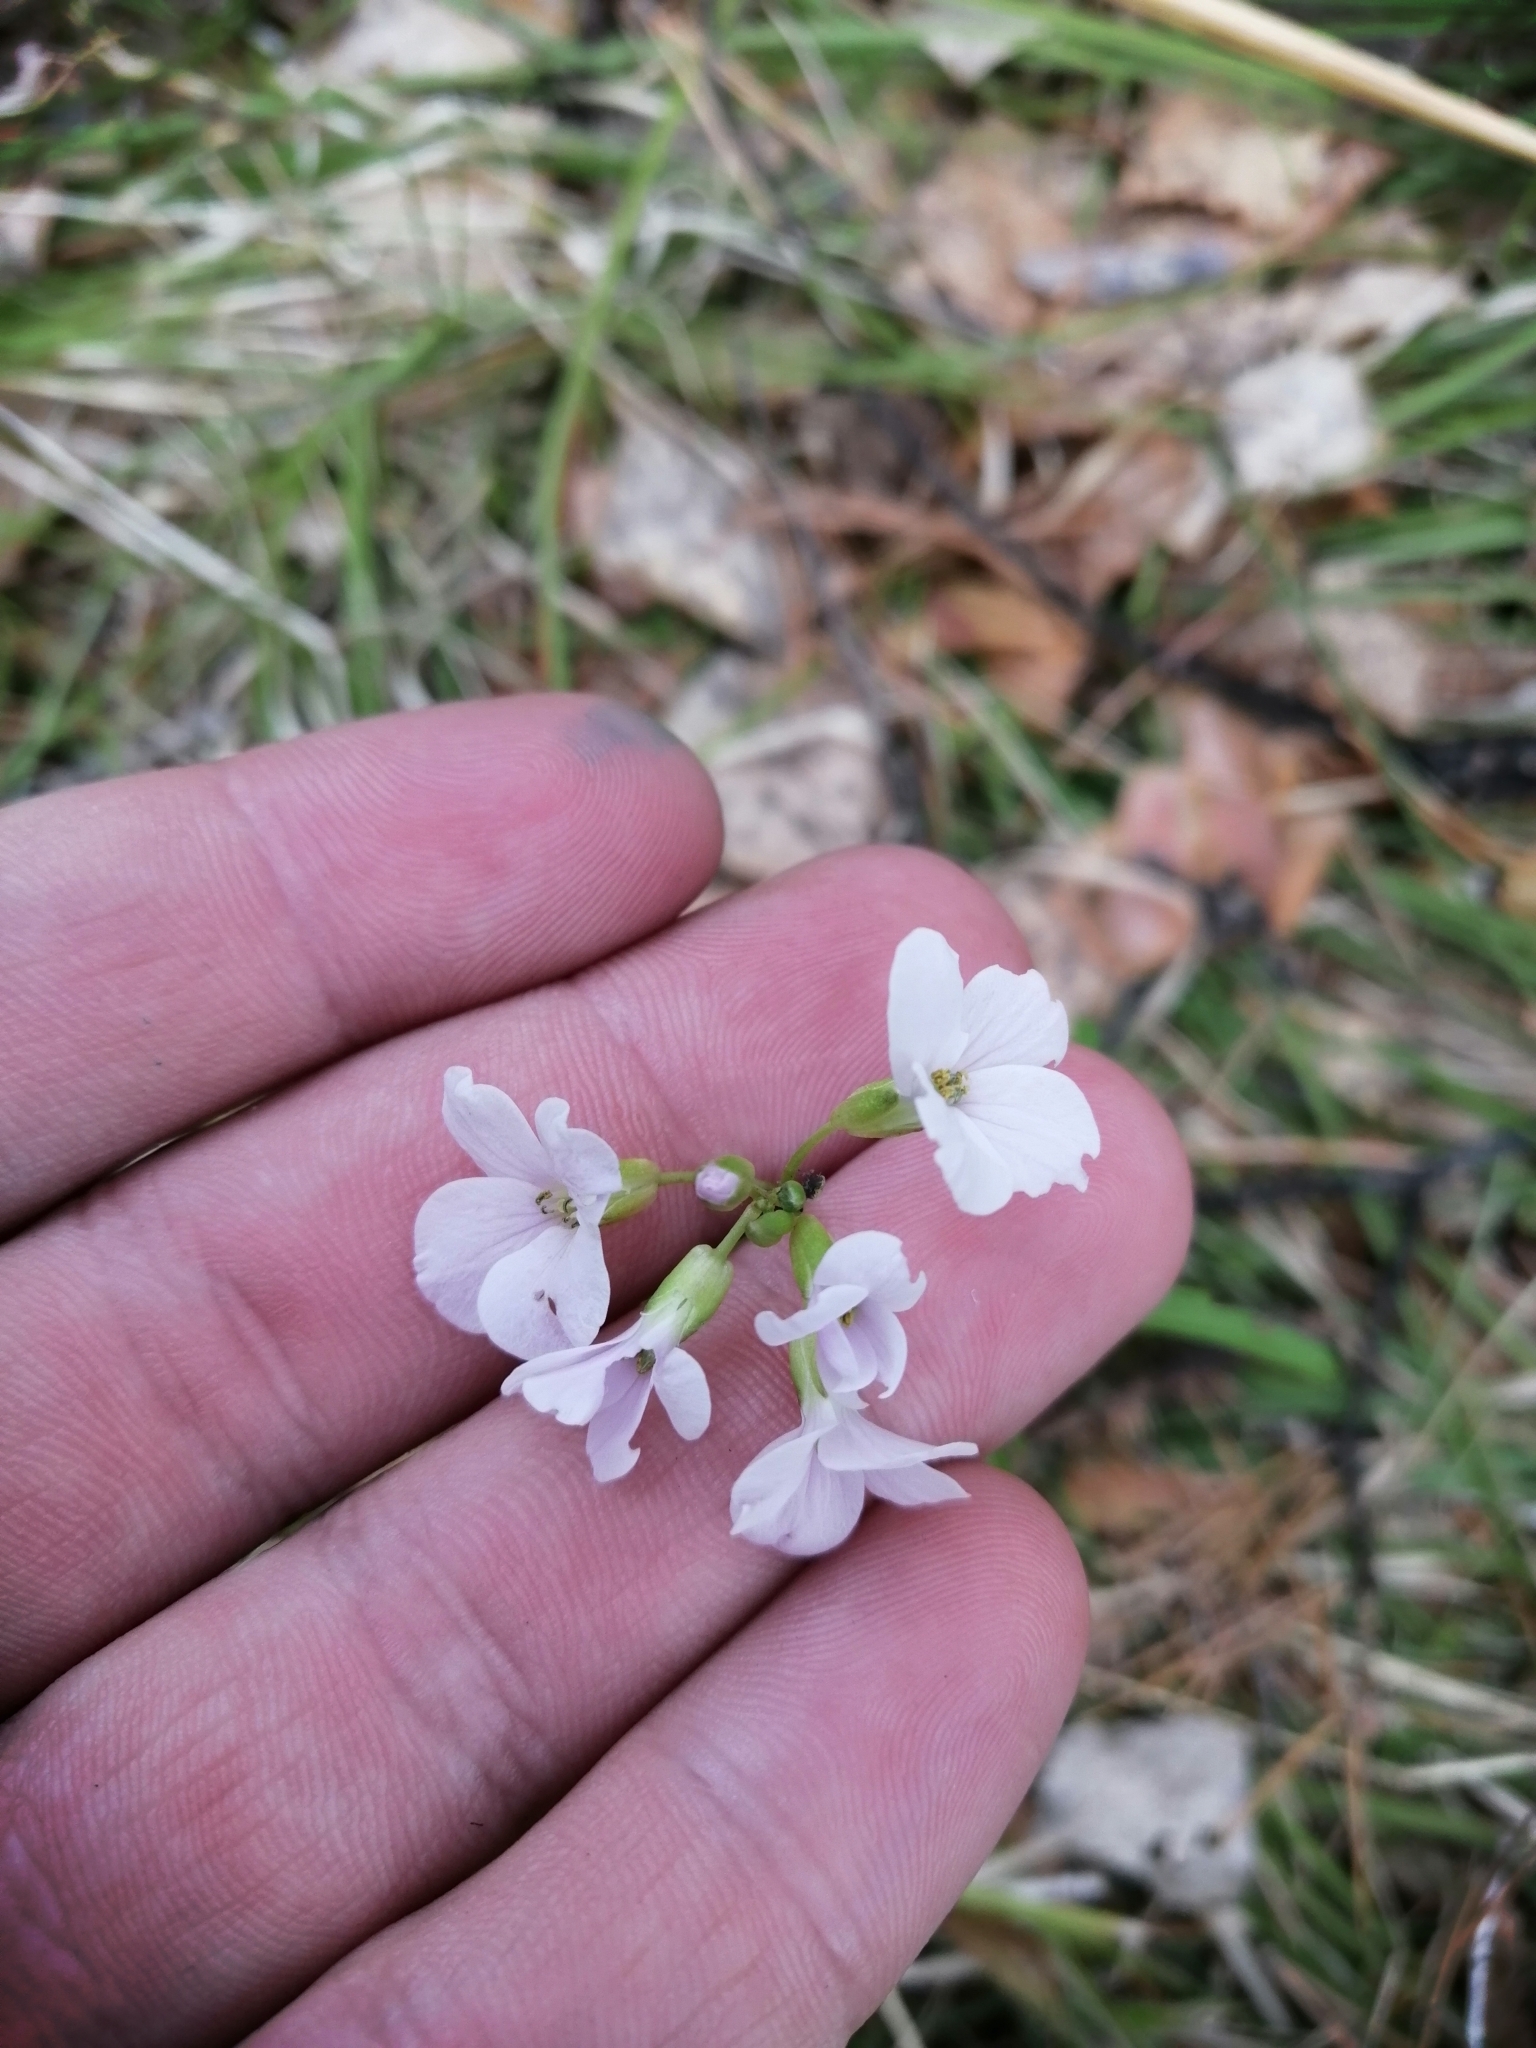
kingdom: Plantae
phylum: Tracheophyta
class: Magnoliopsida
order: Brassicales
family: Brassicaceae
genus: Cardamine
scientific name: Cardamine trifida
